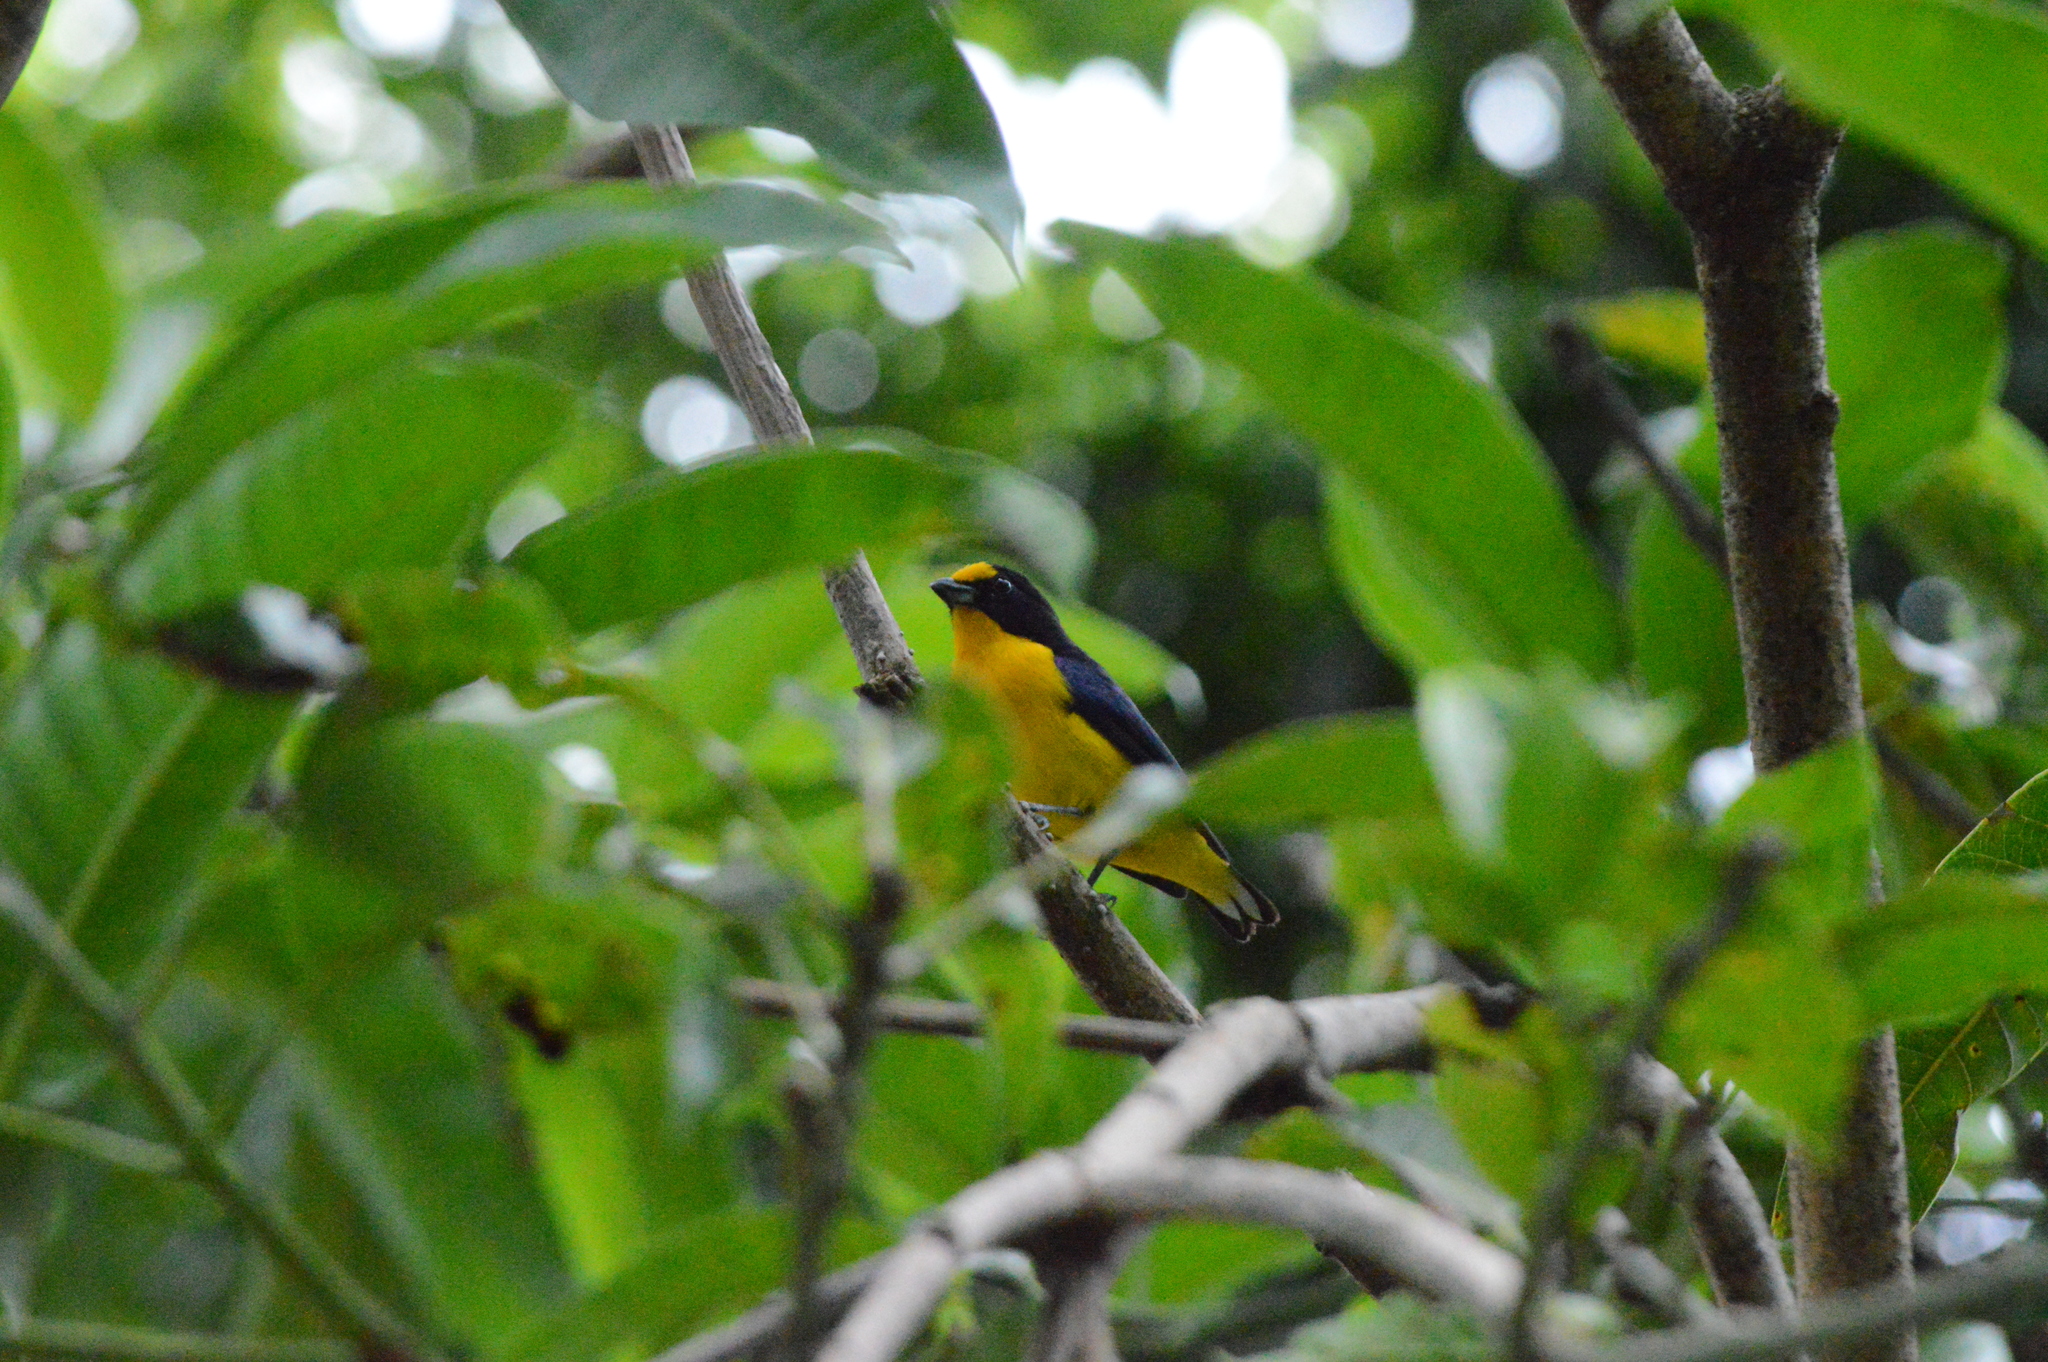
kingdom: Animalia
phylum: Chordata
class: Aves
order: Passeriformes
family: Fringillidae
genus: Euphonia
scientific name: Euphonia violacea
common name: Violaceous euphonia
